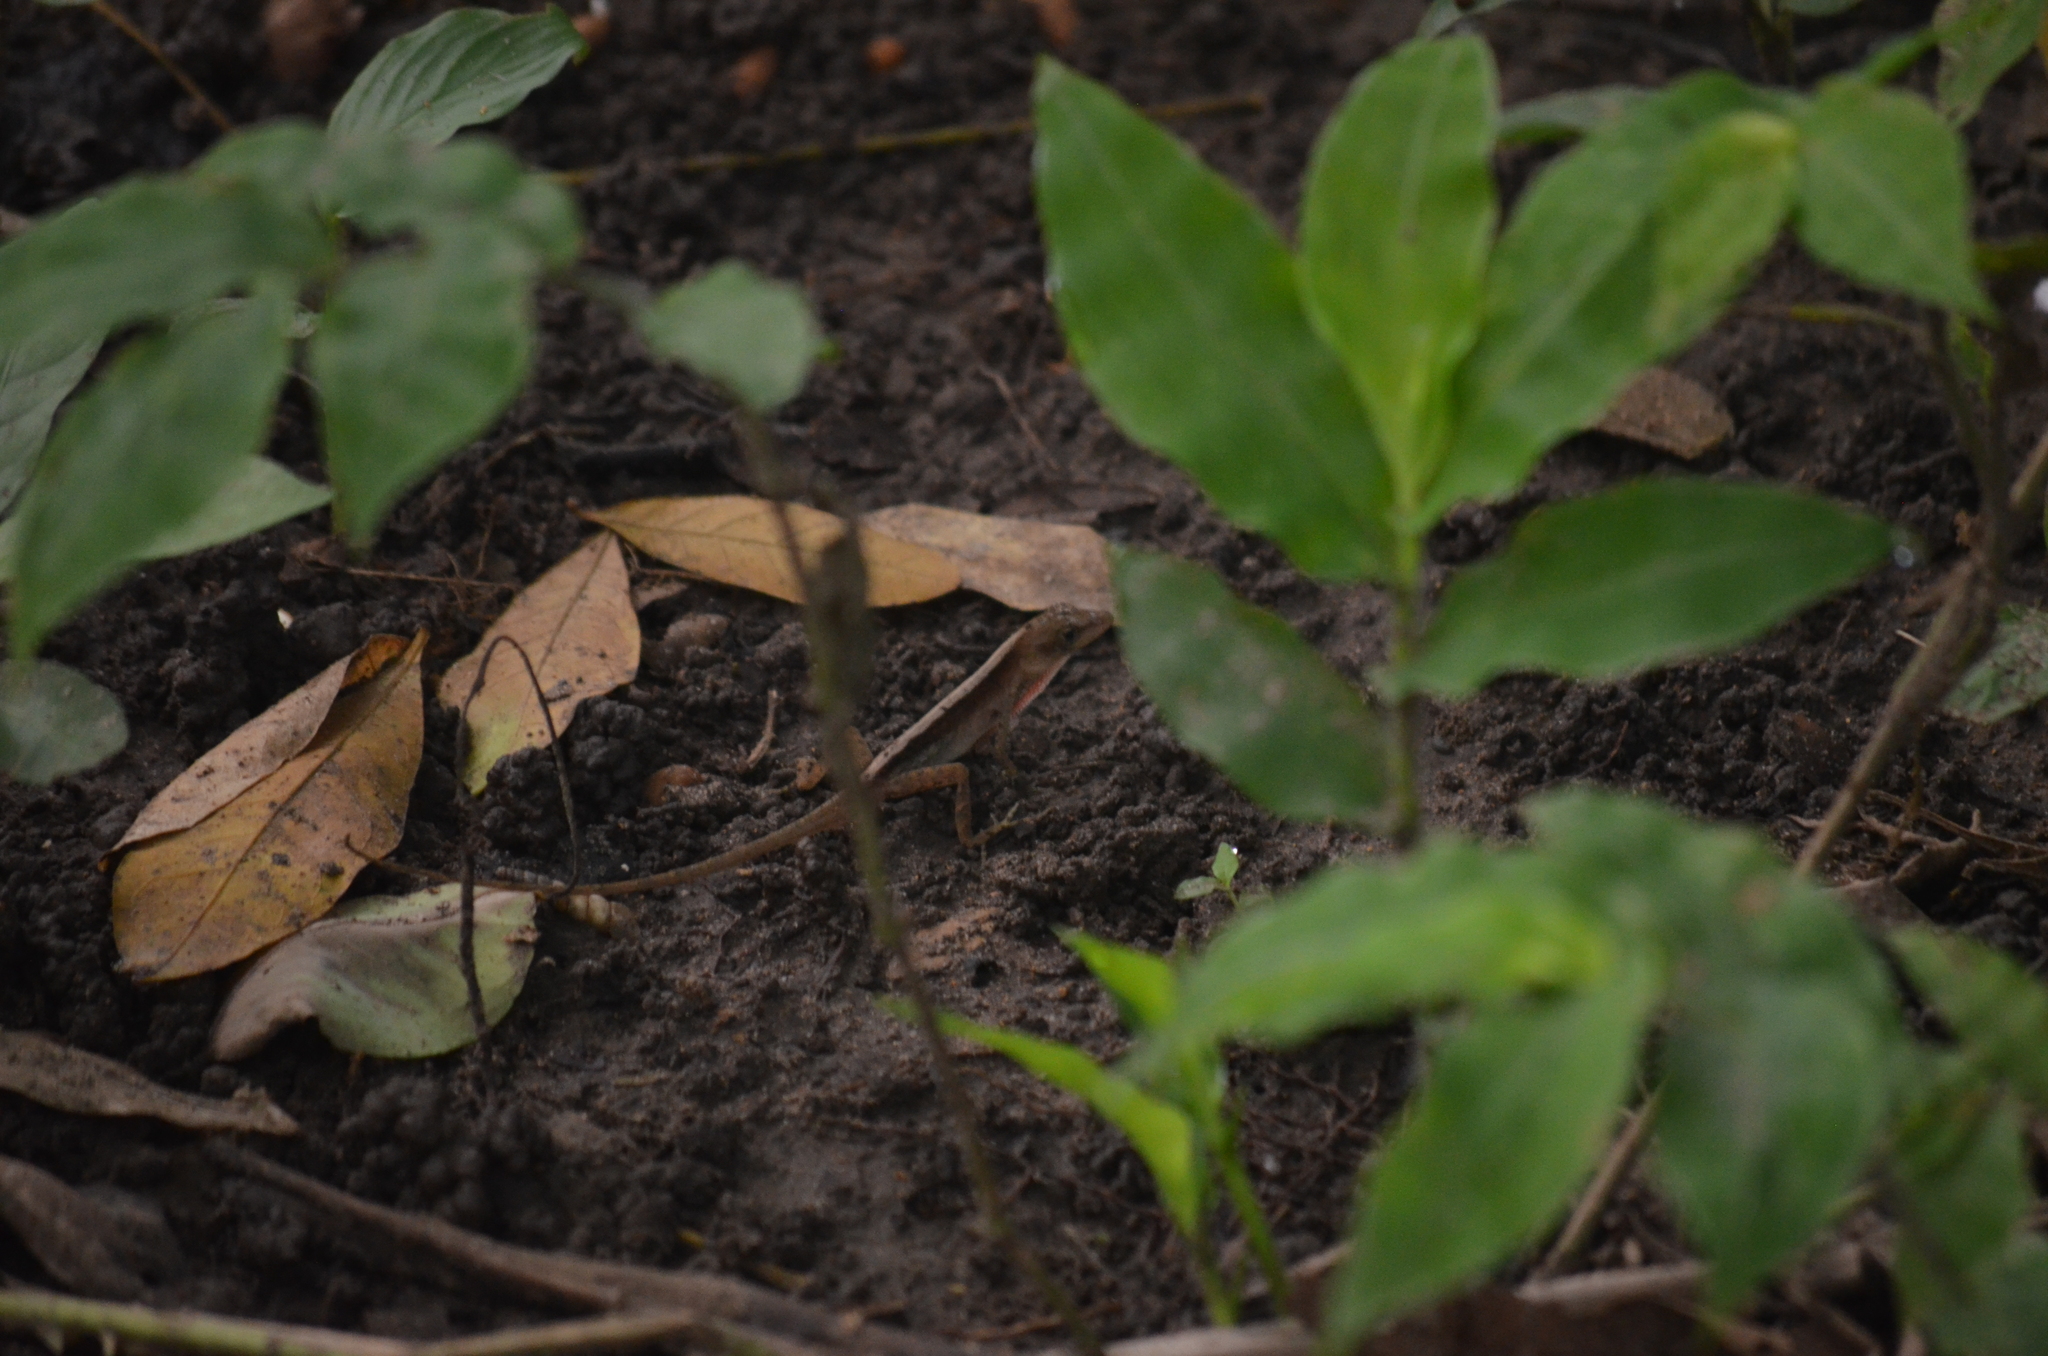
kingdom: Animalia
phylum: Chordata
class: Squamata
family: Dactyloidae
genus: Anolis
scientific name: Anolis cupreus
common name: Copper anole
